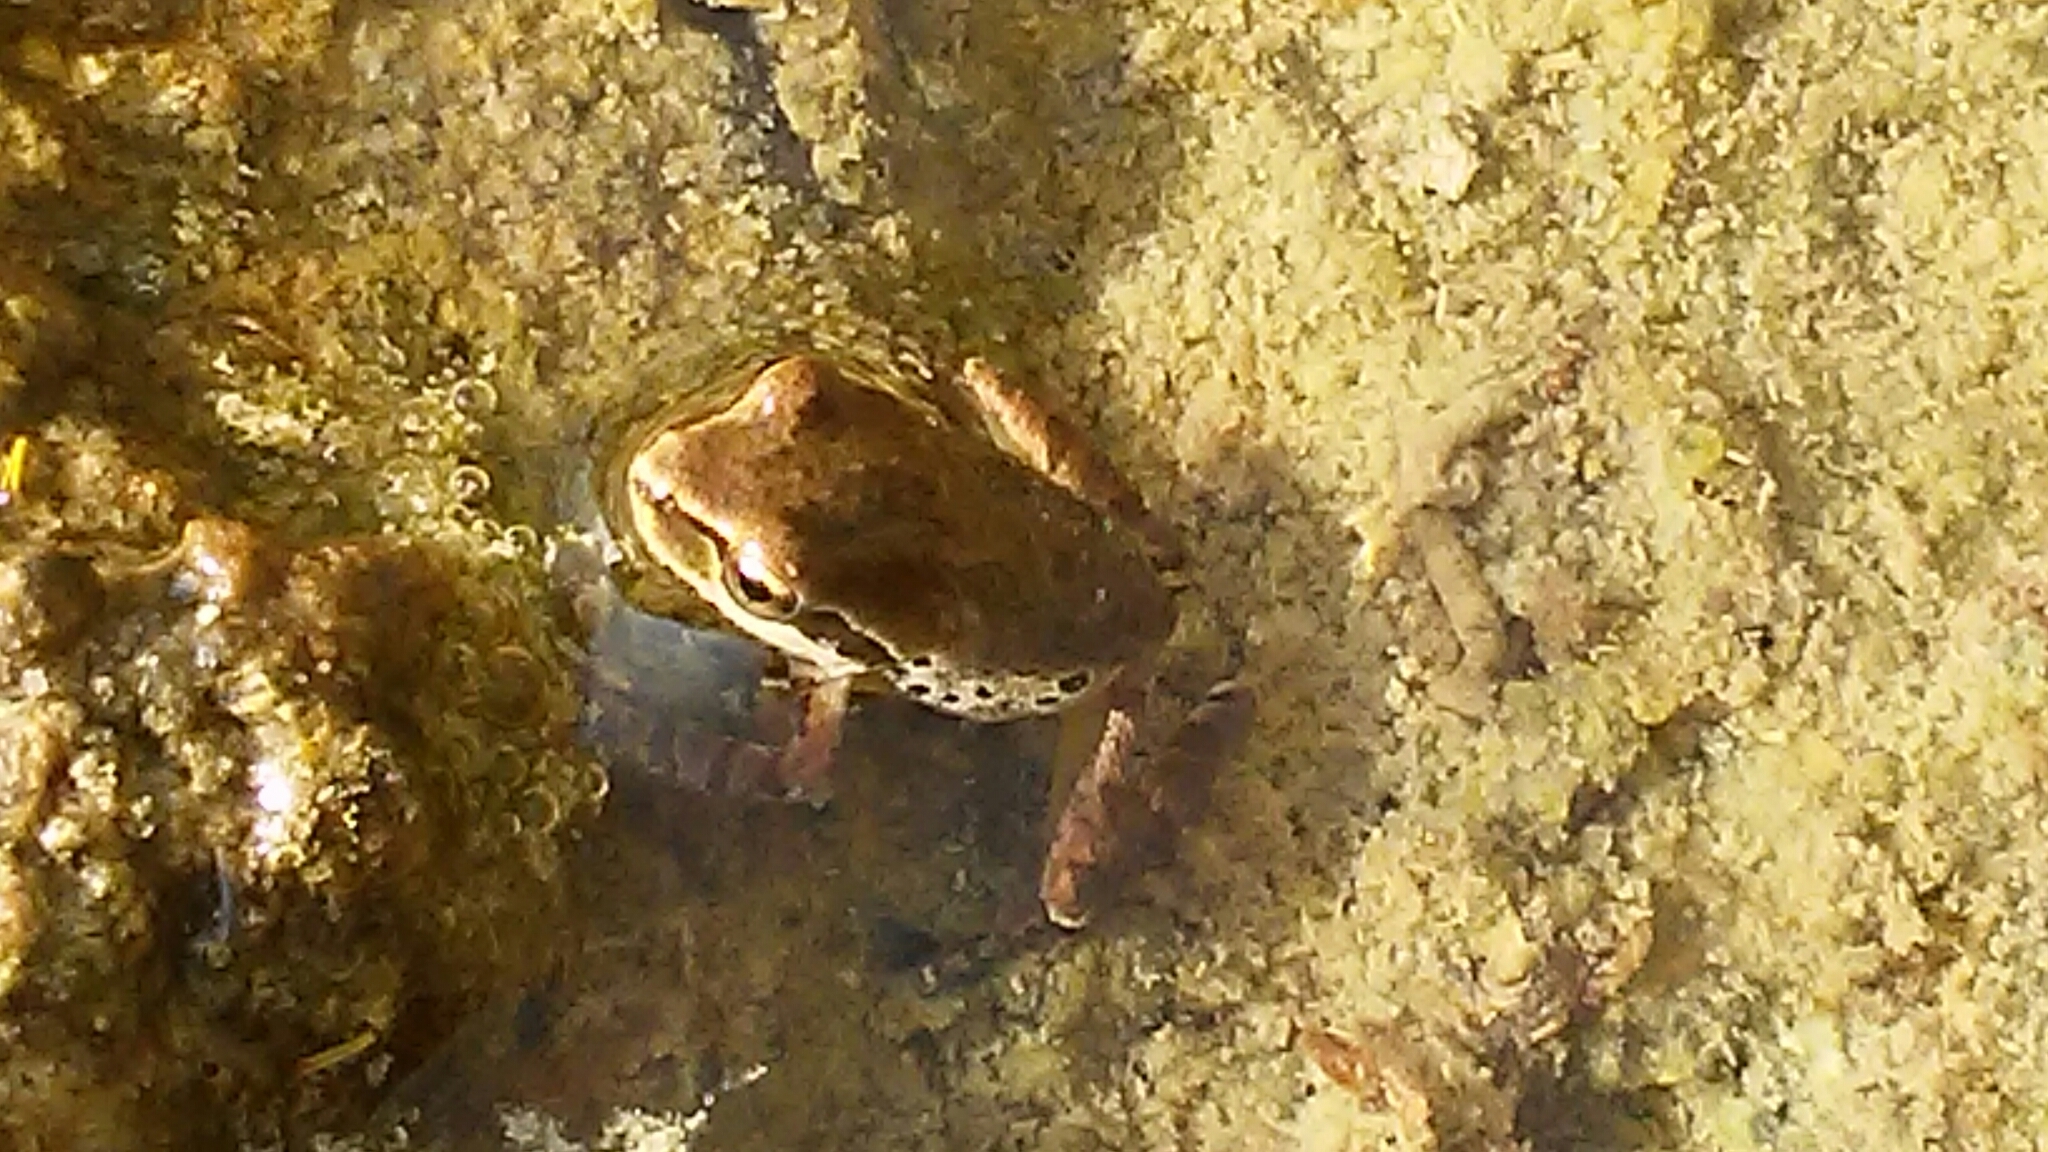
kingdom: Animalia
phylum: Chordata
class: Amphibia
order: Anura
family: Hylidae
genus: Pseudacris
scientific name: Pseudacris regilla
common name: Pacific chorus frog
